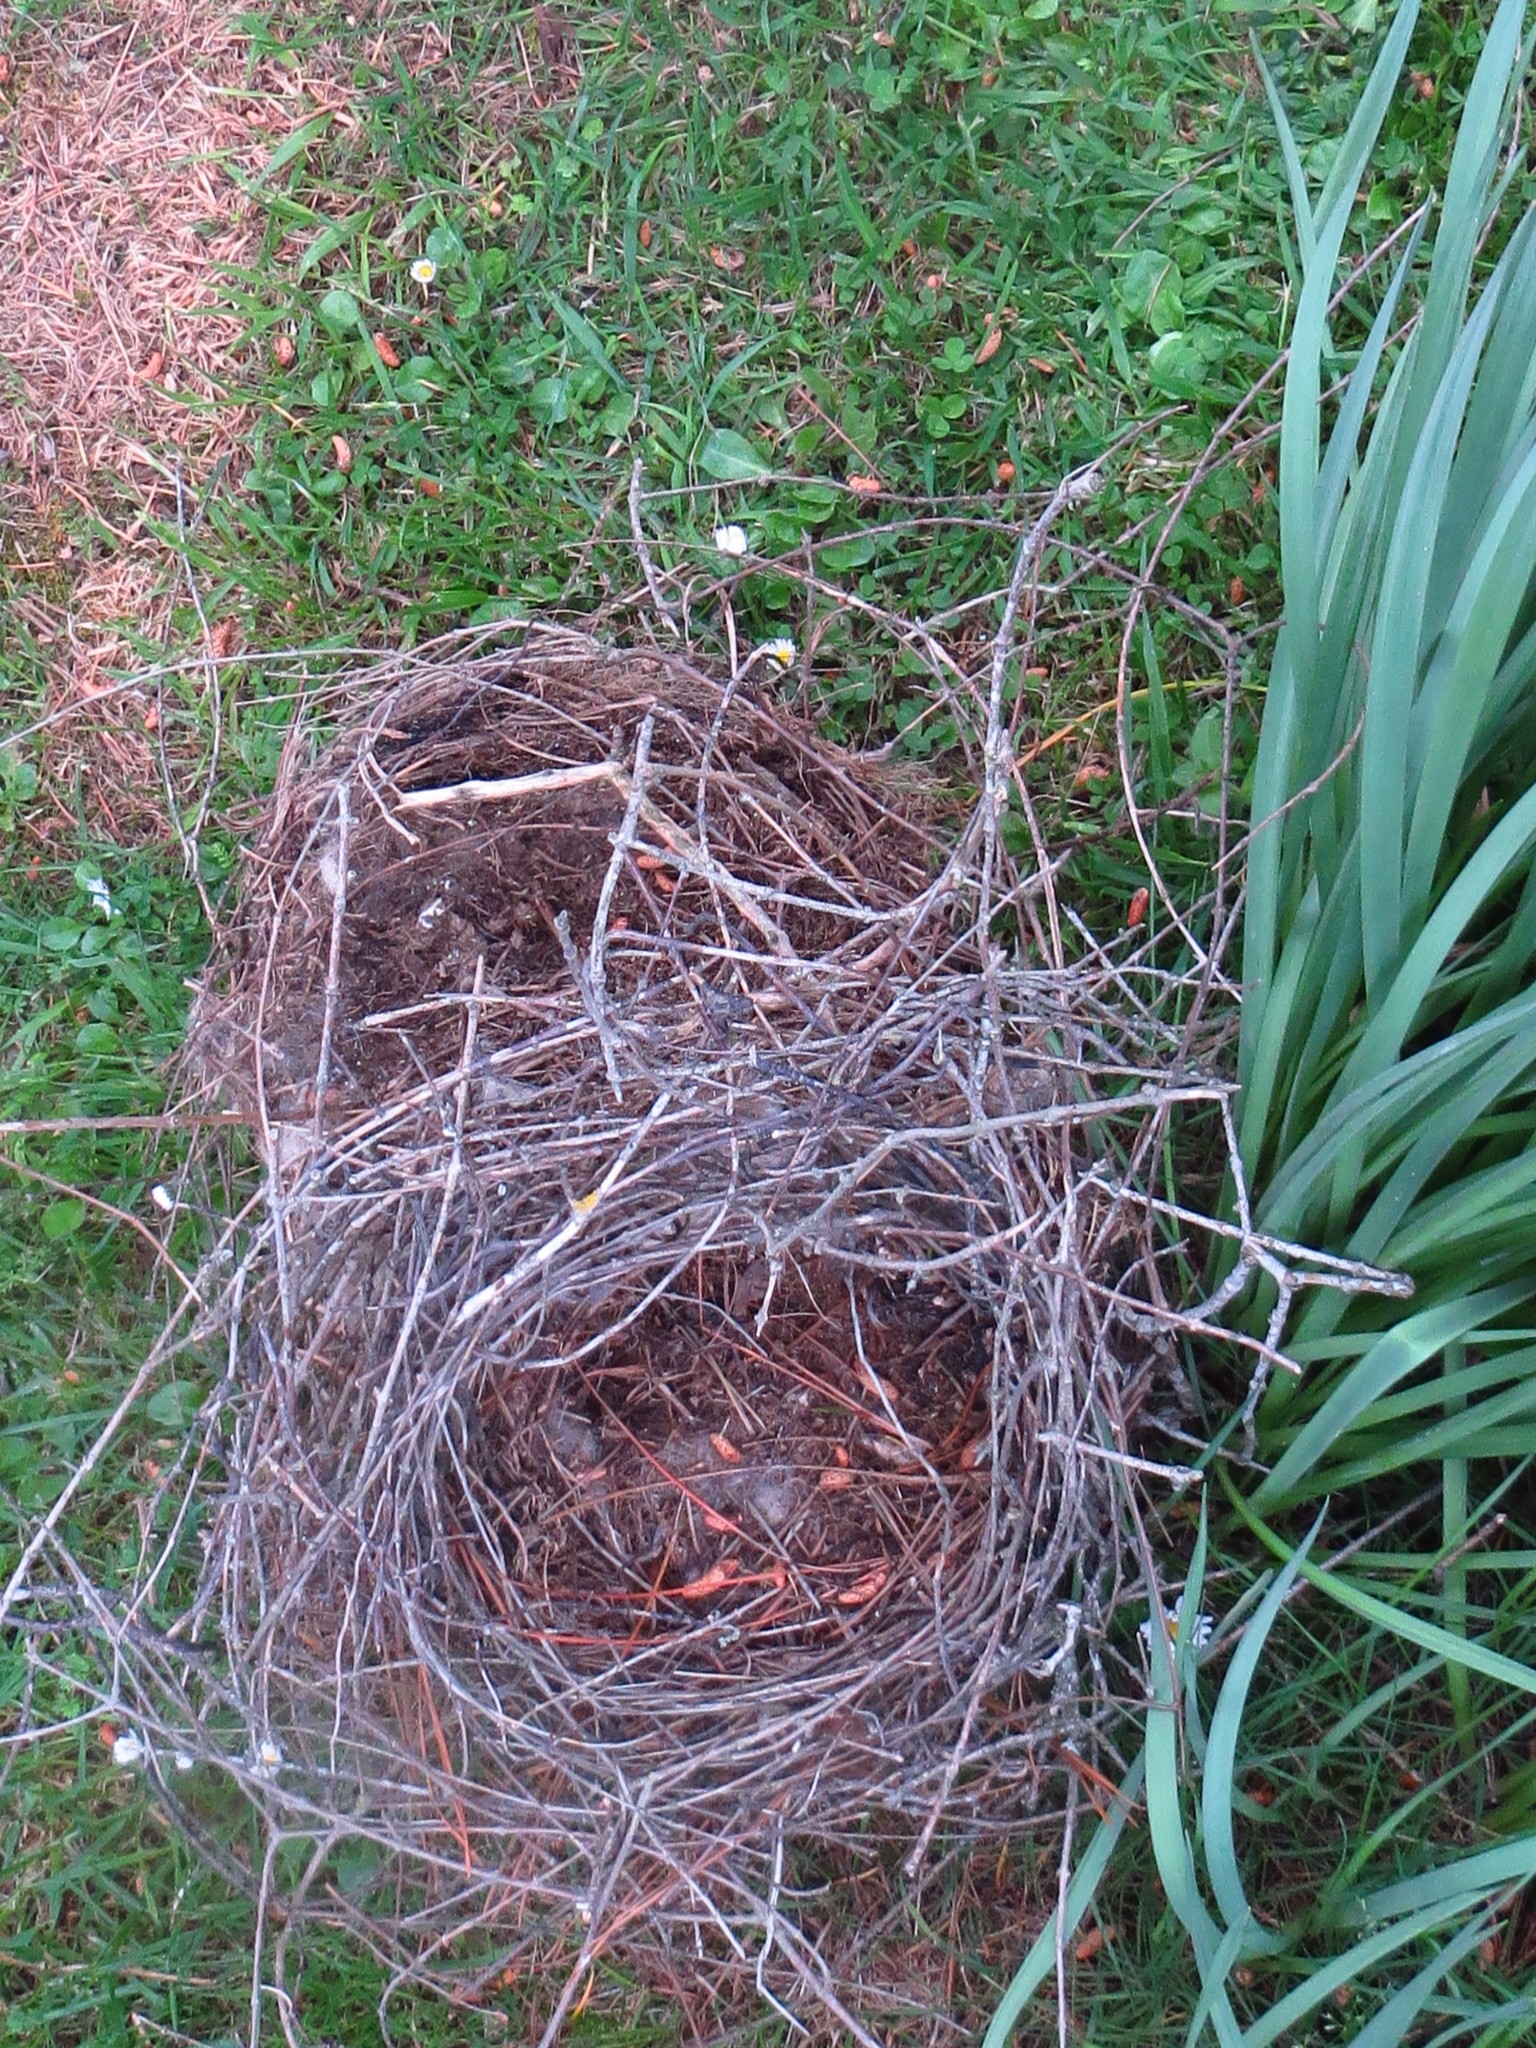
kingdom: Animalia
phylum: Chordata
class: Aves
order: Pelecaniformes
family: Ardeidae
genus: Egretta
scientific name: Egretta novaehollandiae
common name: White-faced heron
